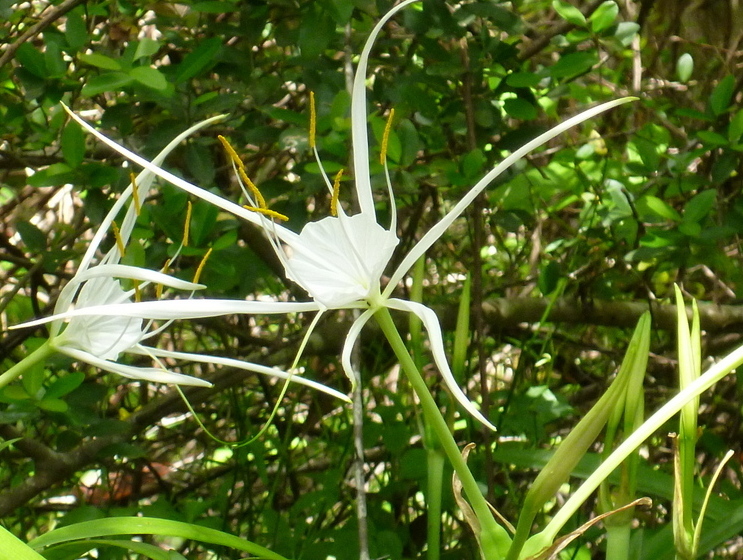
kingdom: Plantae
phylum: Tracheophyta
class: Liliopsida
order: Asparagales
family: Amaryllidaceae
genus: Hymenocallis
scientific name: Hymenocallis franklinensis
